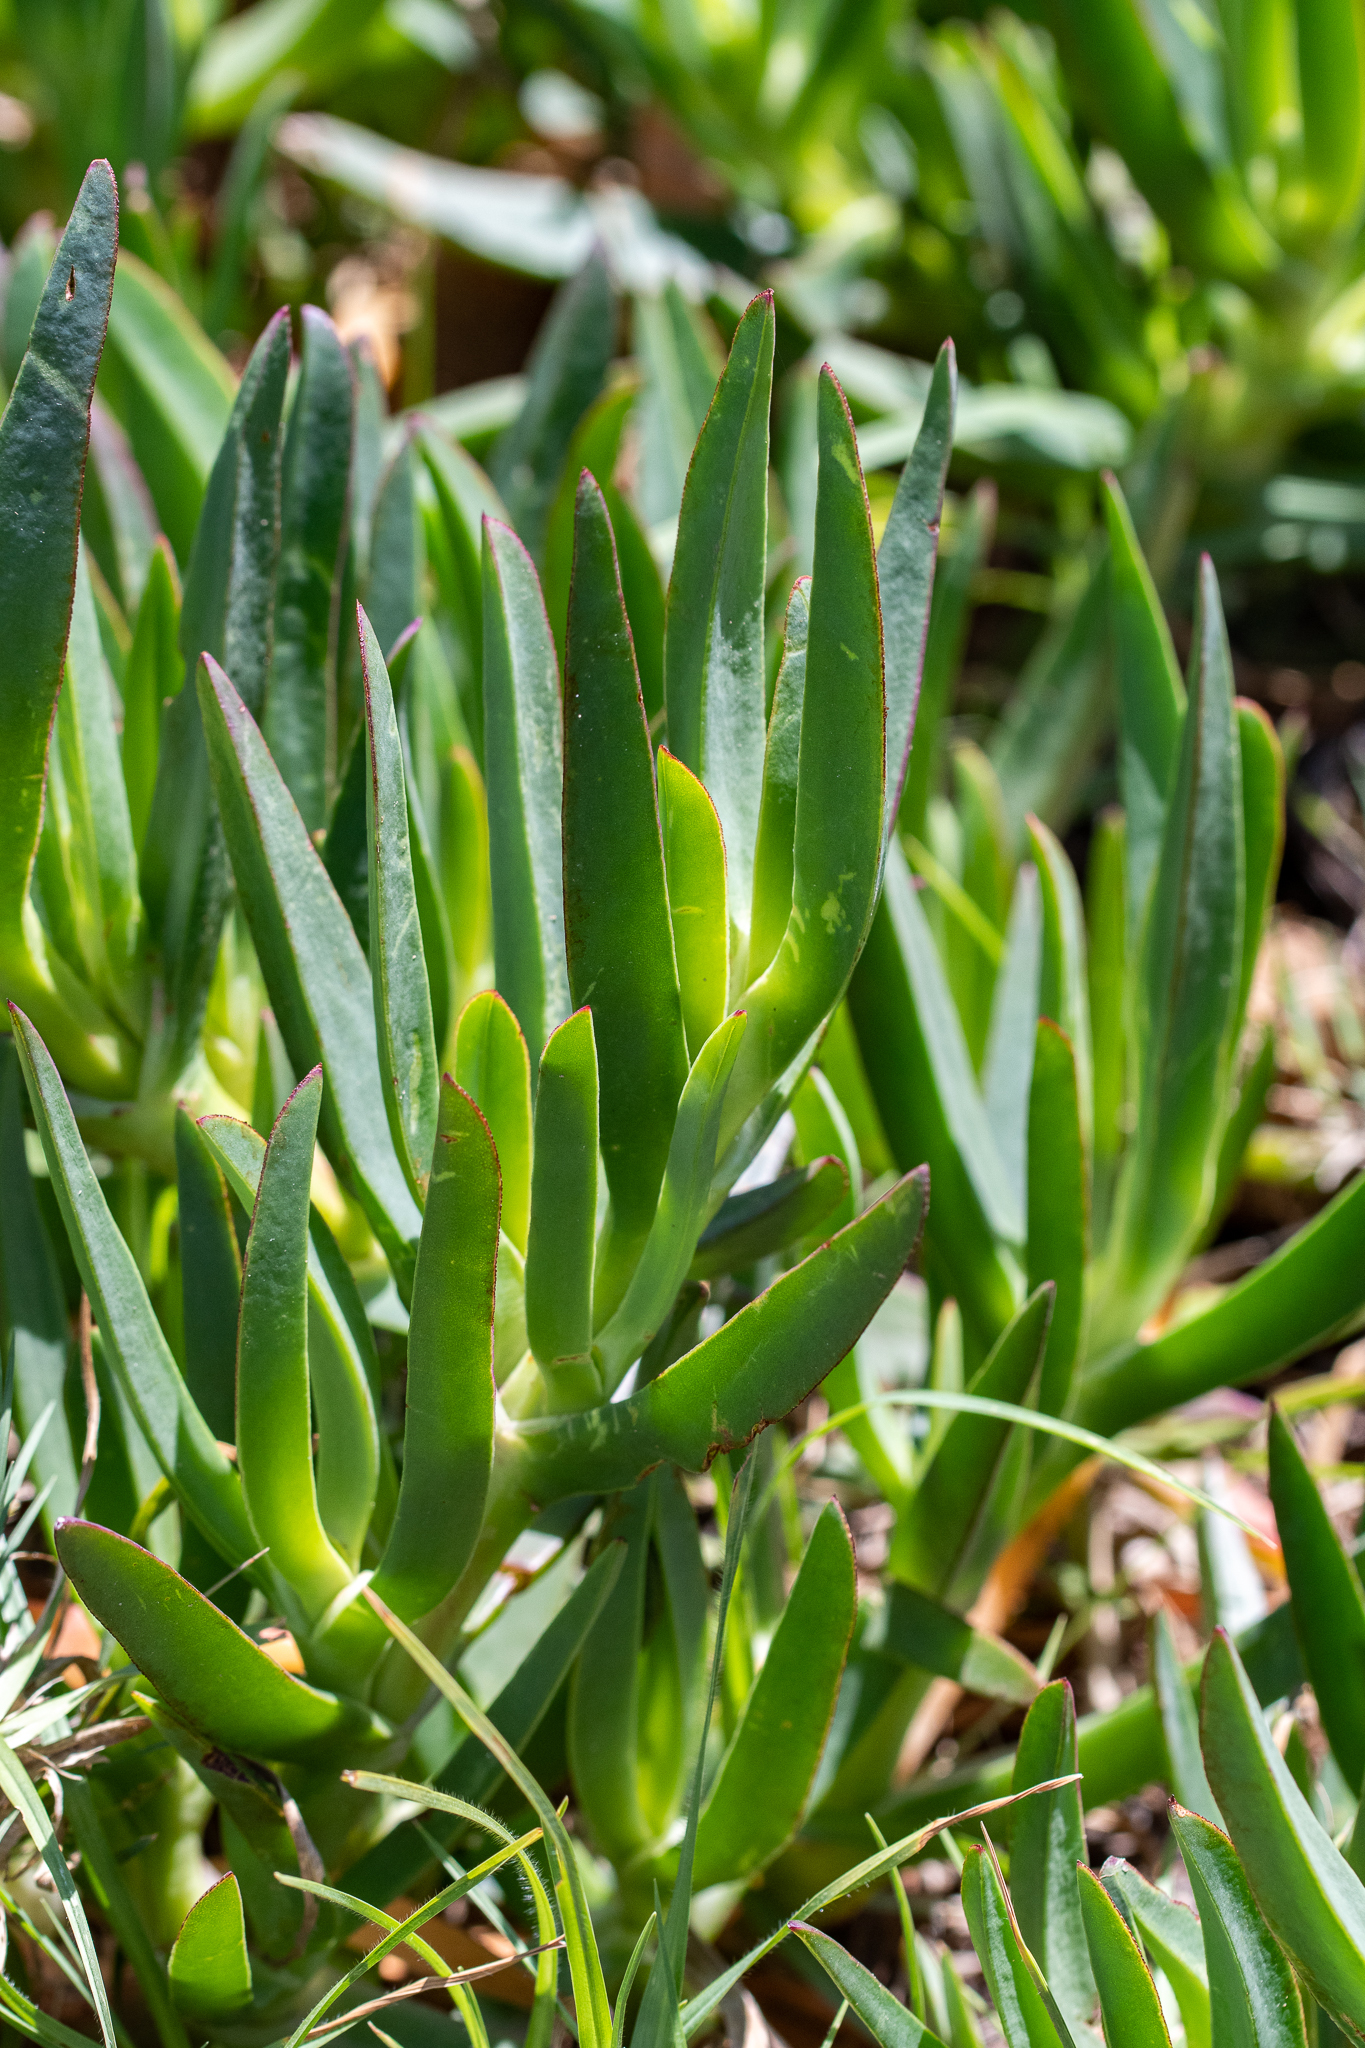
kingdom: Plantae
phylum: Tracheophyta
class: Magnoliopsida
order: Caryophyllales
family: Aizoaceae
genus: Carpobrotus
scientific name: Carpobrotus edulis
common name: Hottentot-fig
